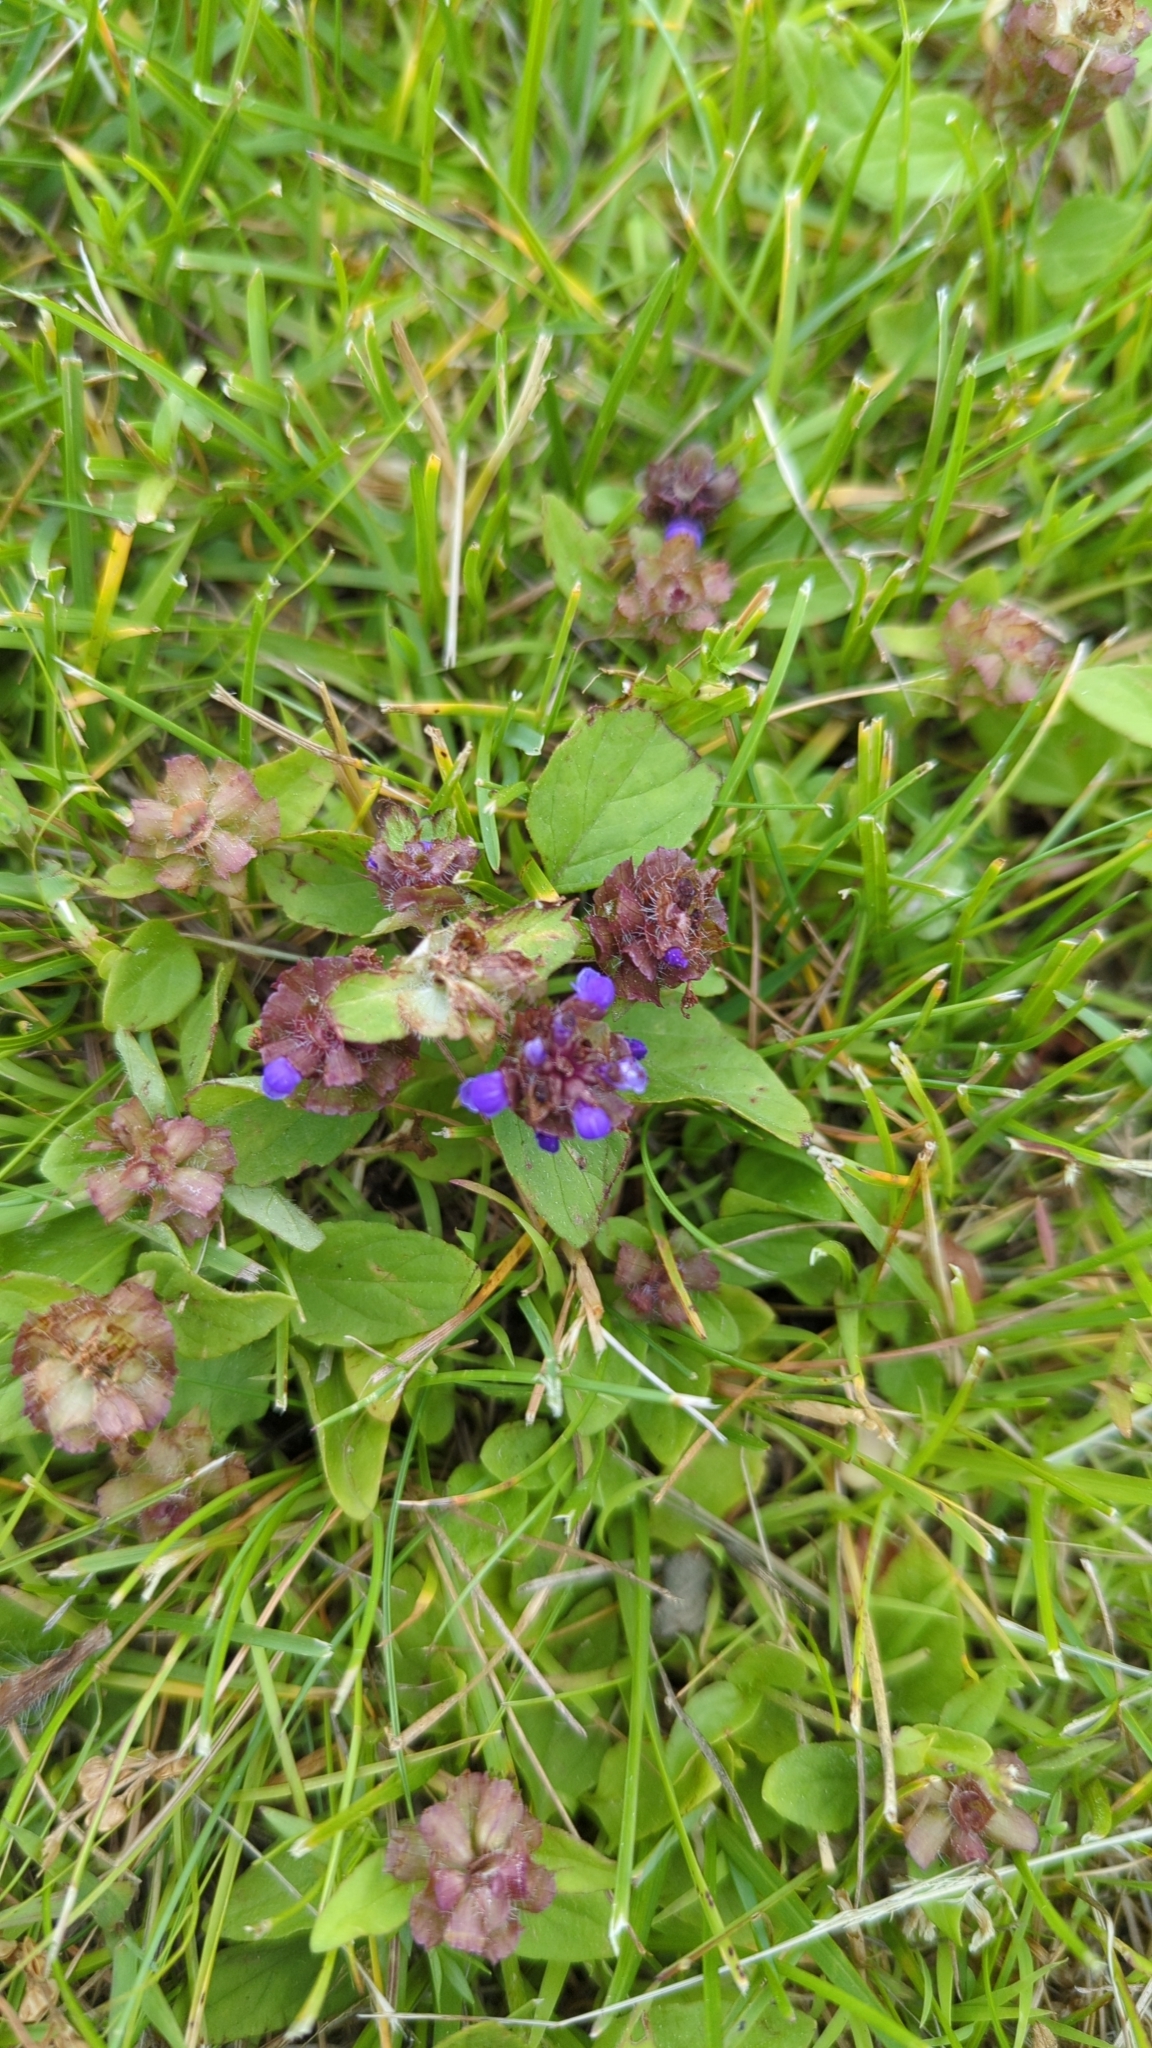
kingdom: Plantae
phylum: Tracheophyta
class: Magnoliopsida
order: Lamiales
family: Lamiaceae
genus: Prunella
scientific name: Prunella vulgaris
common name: Heal-all
